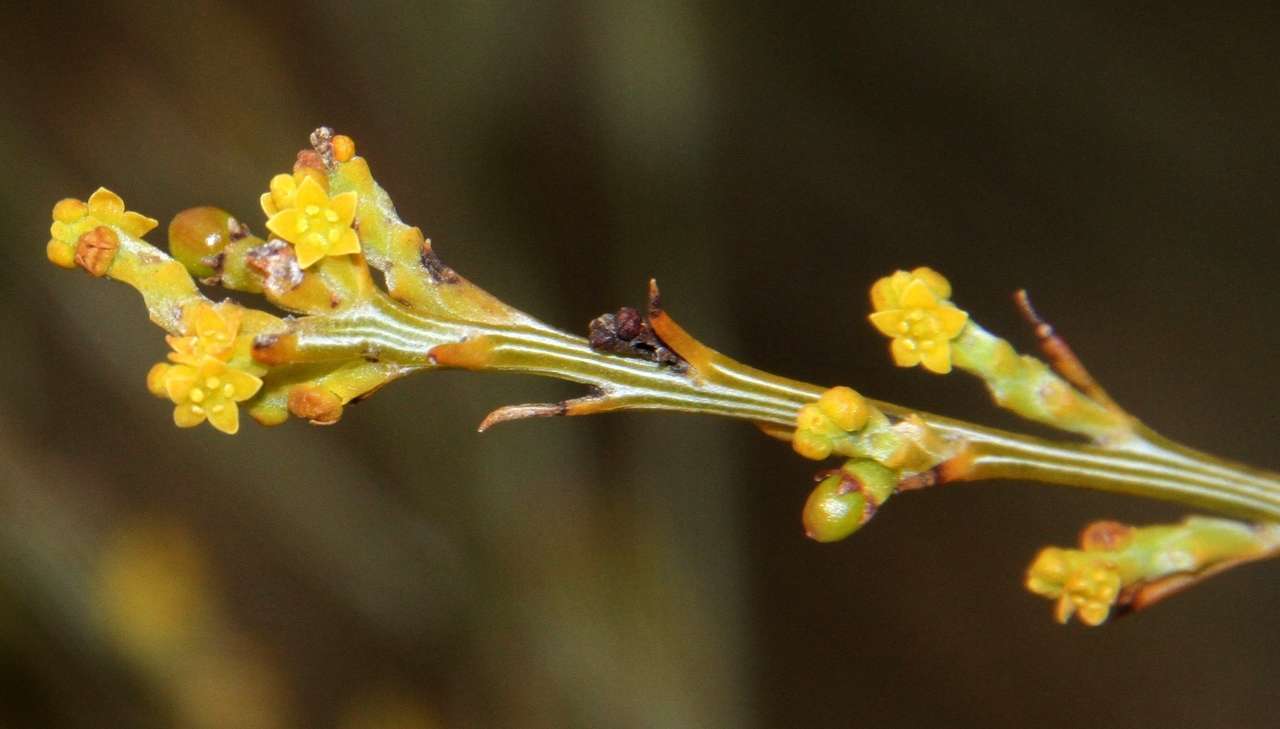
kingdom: Plantae
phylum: Tracheophyta
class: Magnoliopsida
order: Santalales
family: Santalaceae
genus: Exocarpos
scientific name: Exocarpos sparteus
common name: Broom ballart
